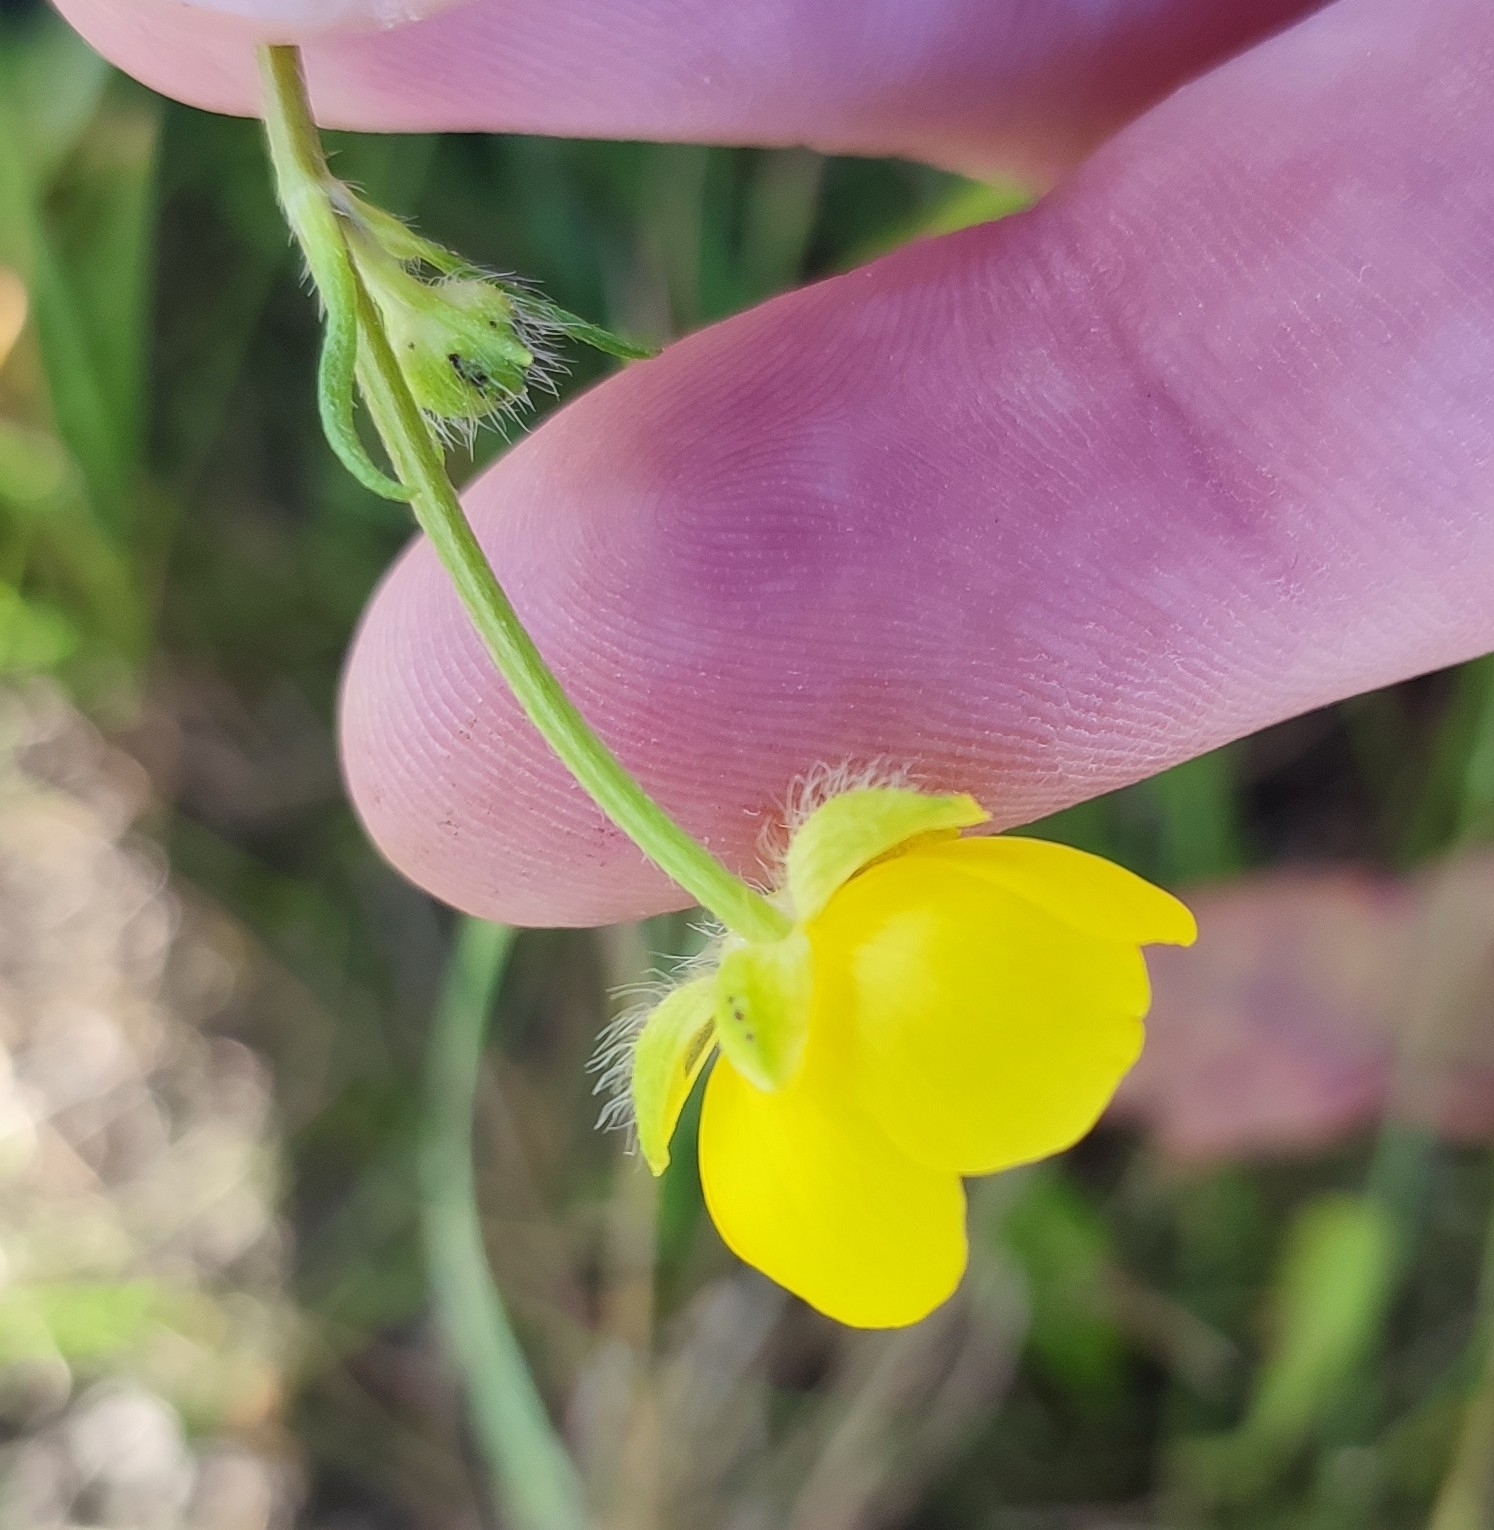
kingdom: Plantae
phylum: Tracheophyta
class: Magnoliopsida
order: Ranunculales
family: Ranunculaceae
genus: Ranunculus
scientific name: Ranunculus polyanthemos
